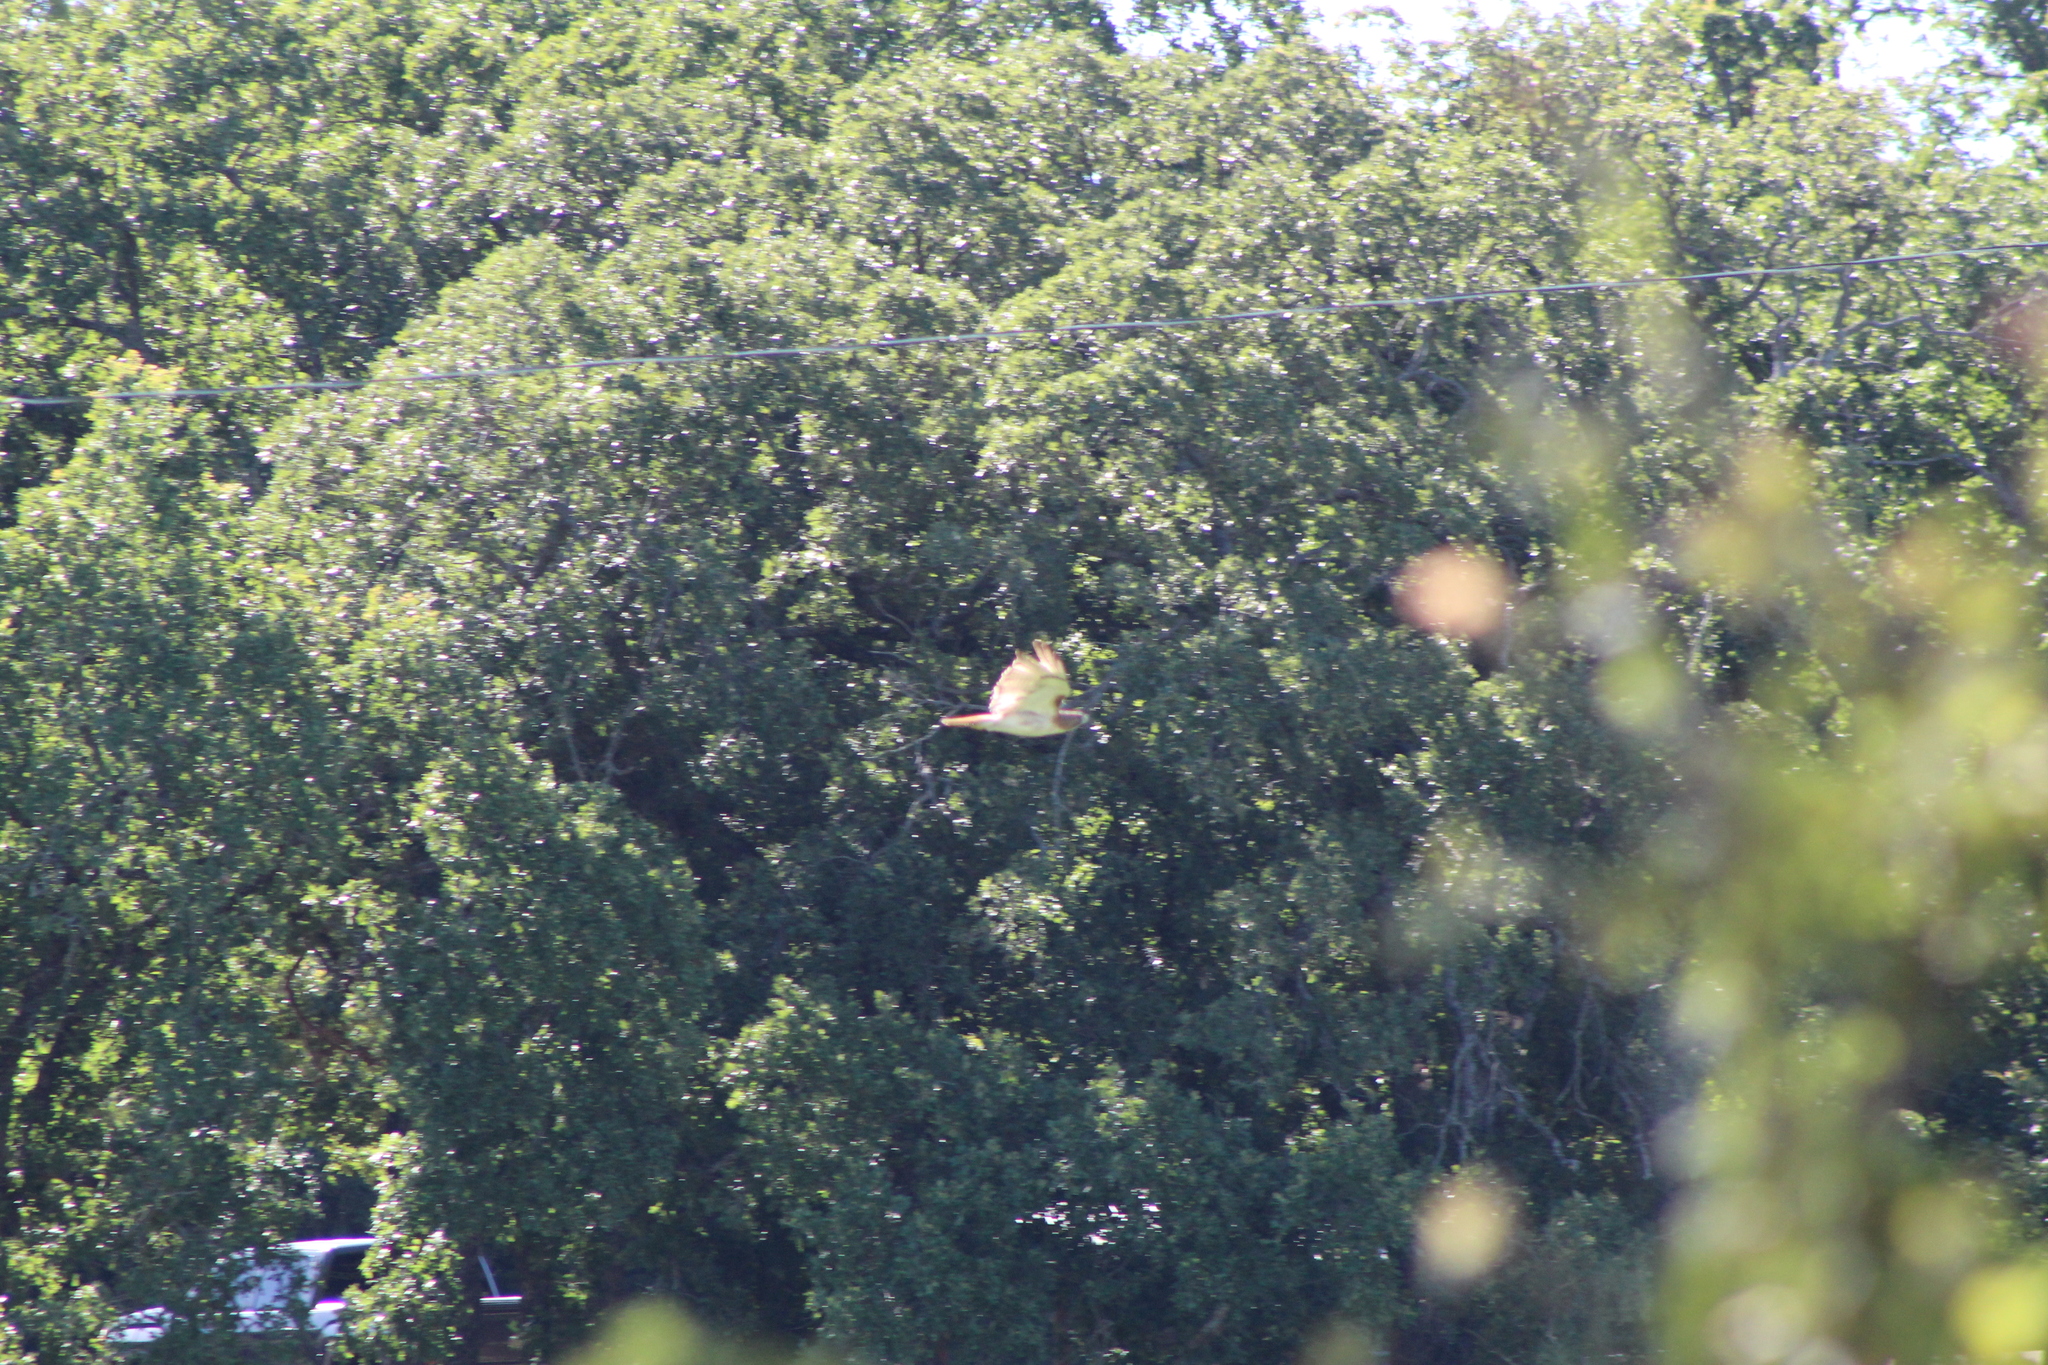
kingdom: Animalia
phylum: Chordata
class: Aves
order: Accipitriformes
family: Accipitridae
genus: Buteo
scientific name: Buteo jamaicensis
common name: Red-tailed hawk
